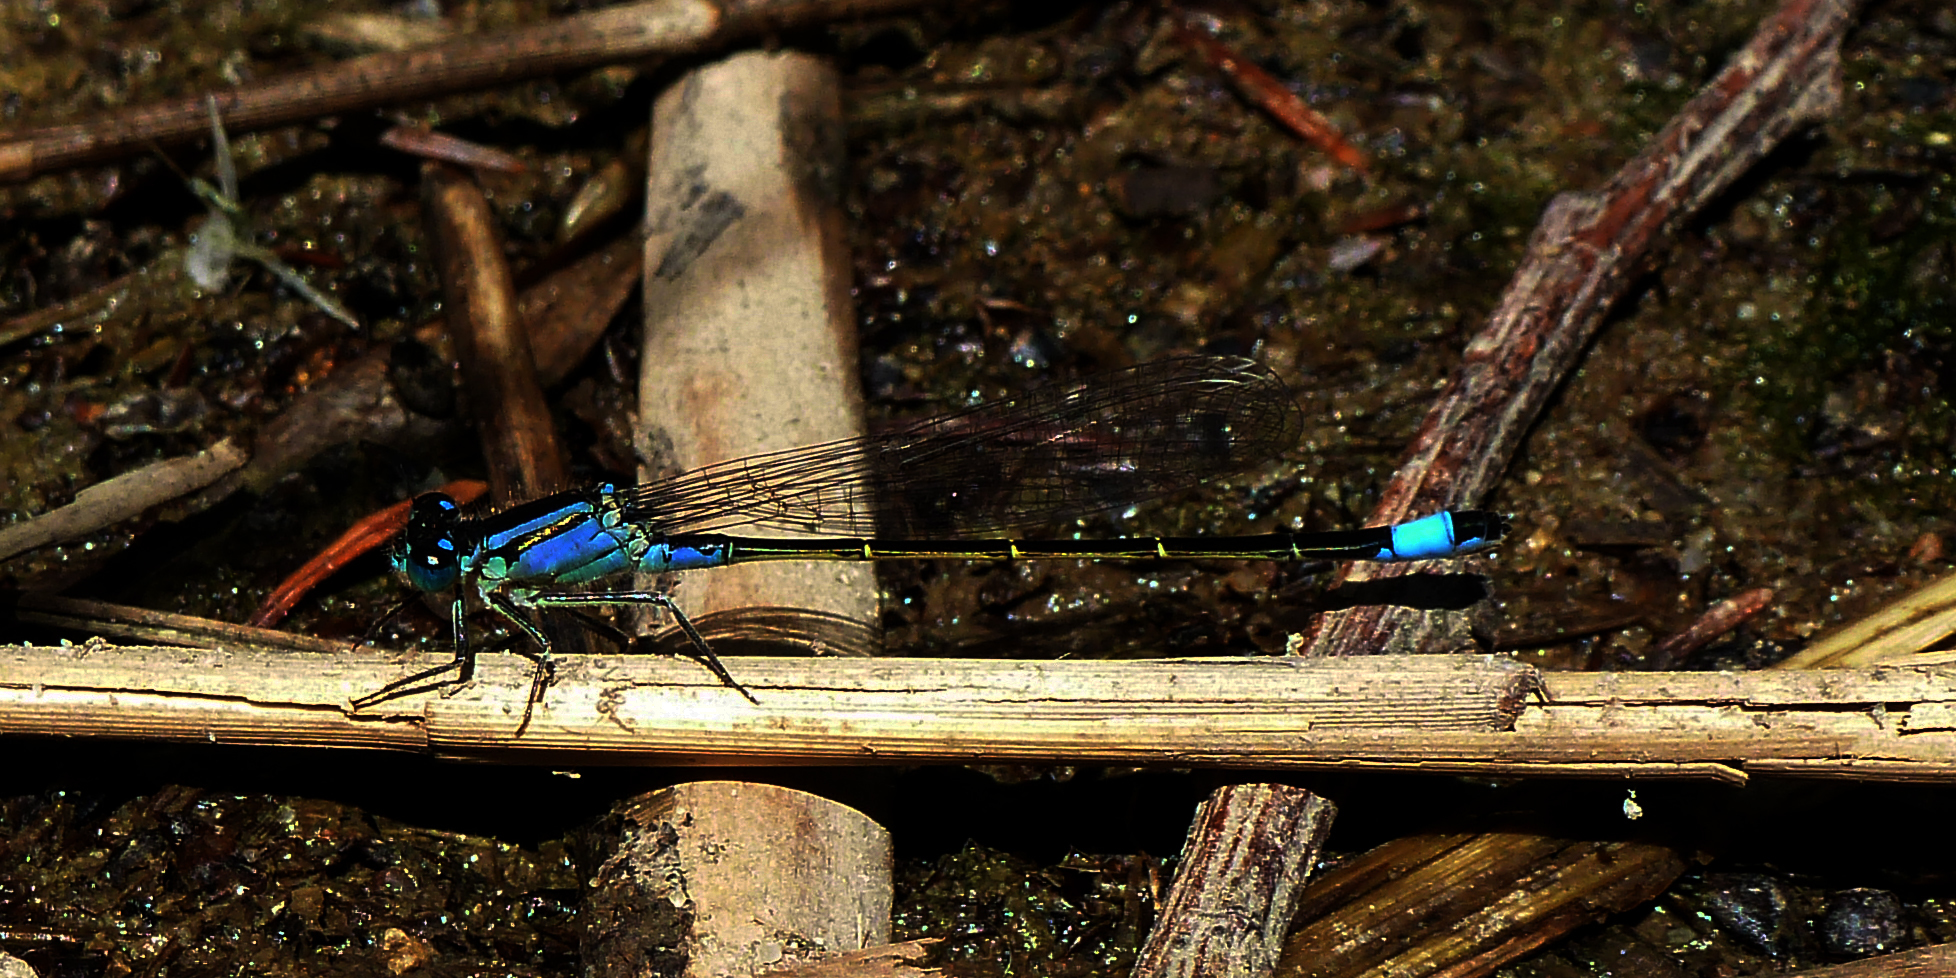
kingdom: Animalia
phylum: Arthropoda
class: Insecta
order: Odonata
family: Coenagrionidae
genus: Ischnura
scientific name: Ischnura elegans
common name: Blue-tailed damselfly
